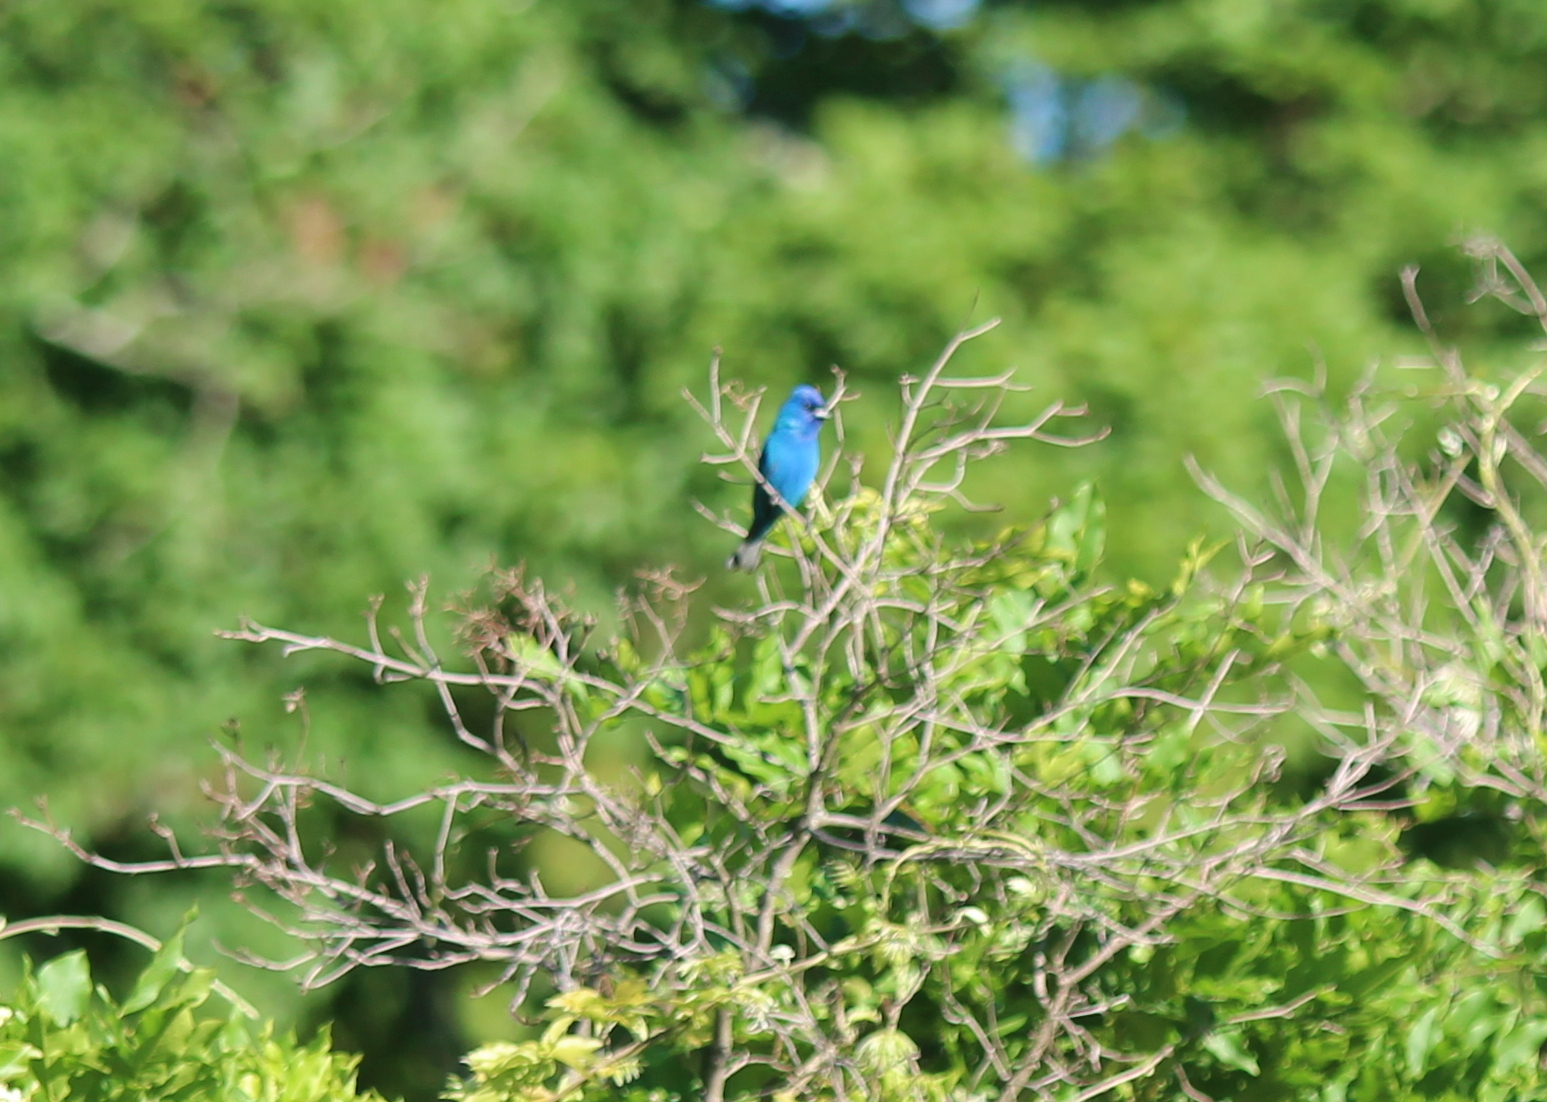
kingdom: Animalia
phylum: Chordata
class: Aves
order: Passeriformes
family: Cardinalidae
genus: Passerina
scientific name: Passerina cyanea
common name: Indigo bunting
